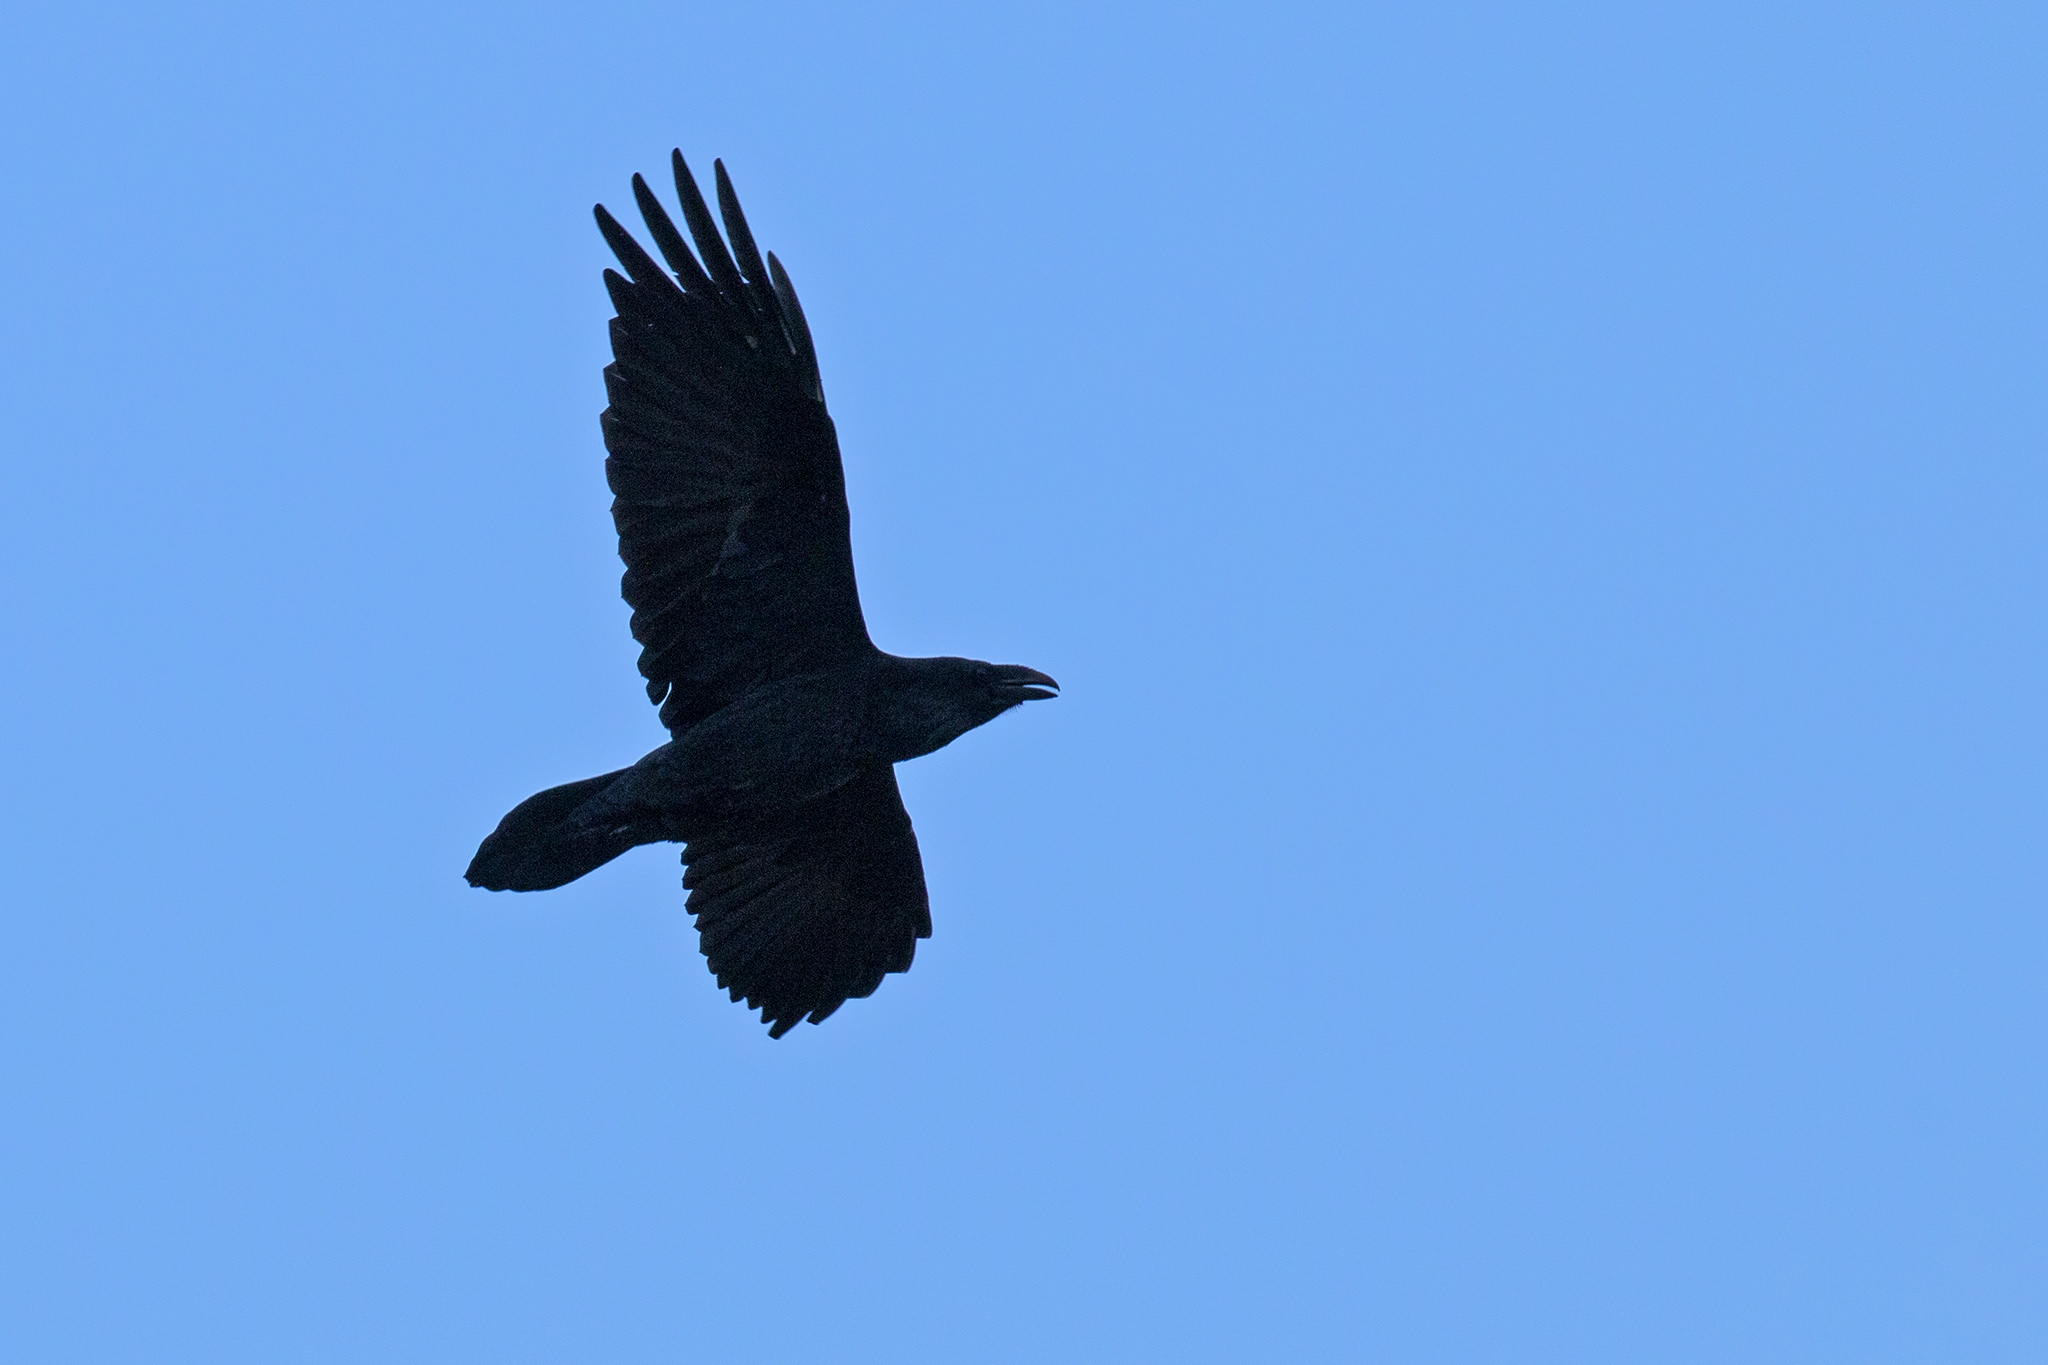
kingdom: Animalia
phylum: Chordata
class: Aves
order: Passeriformes
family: Corvidae
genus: Corvus
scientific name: Corvus corax
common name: Common raven
